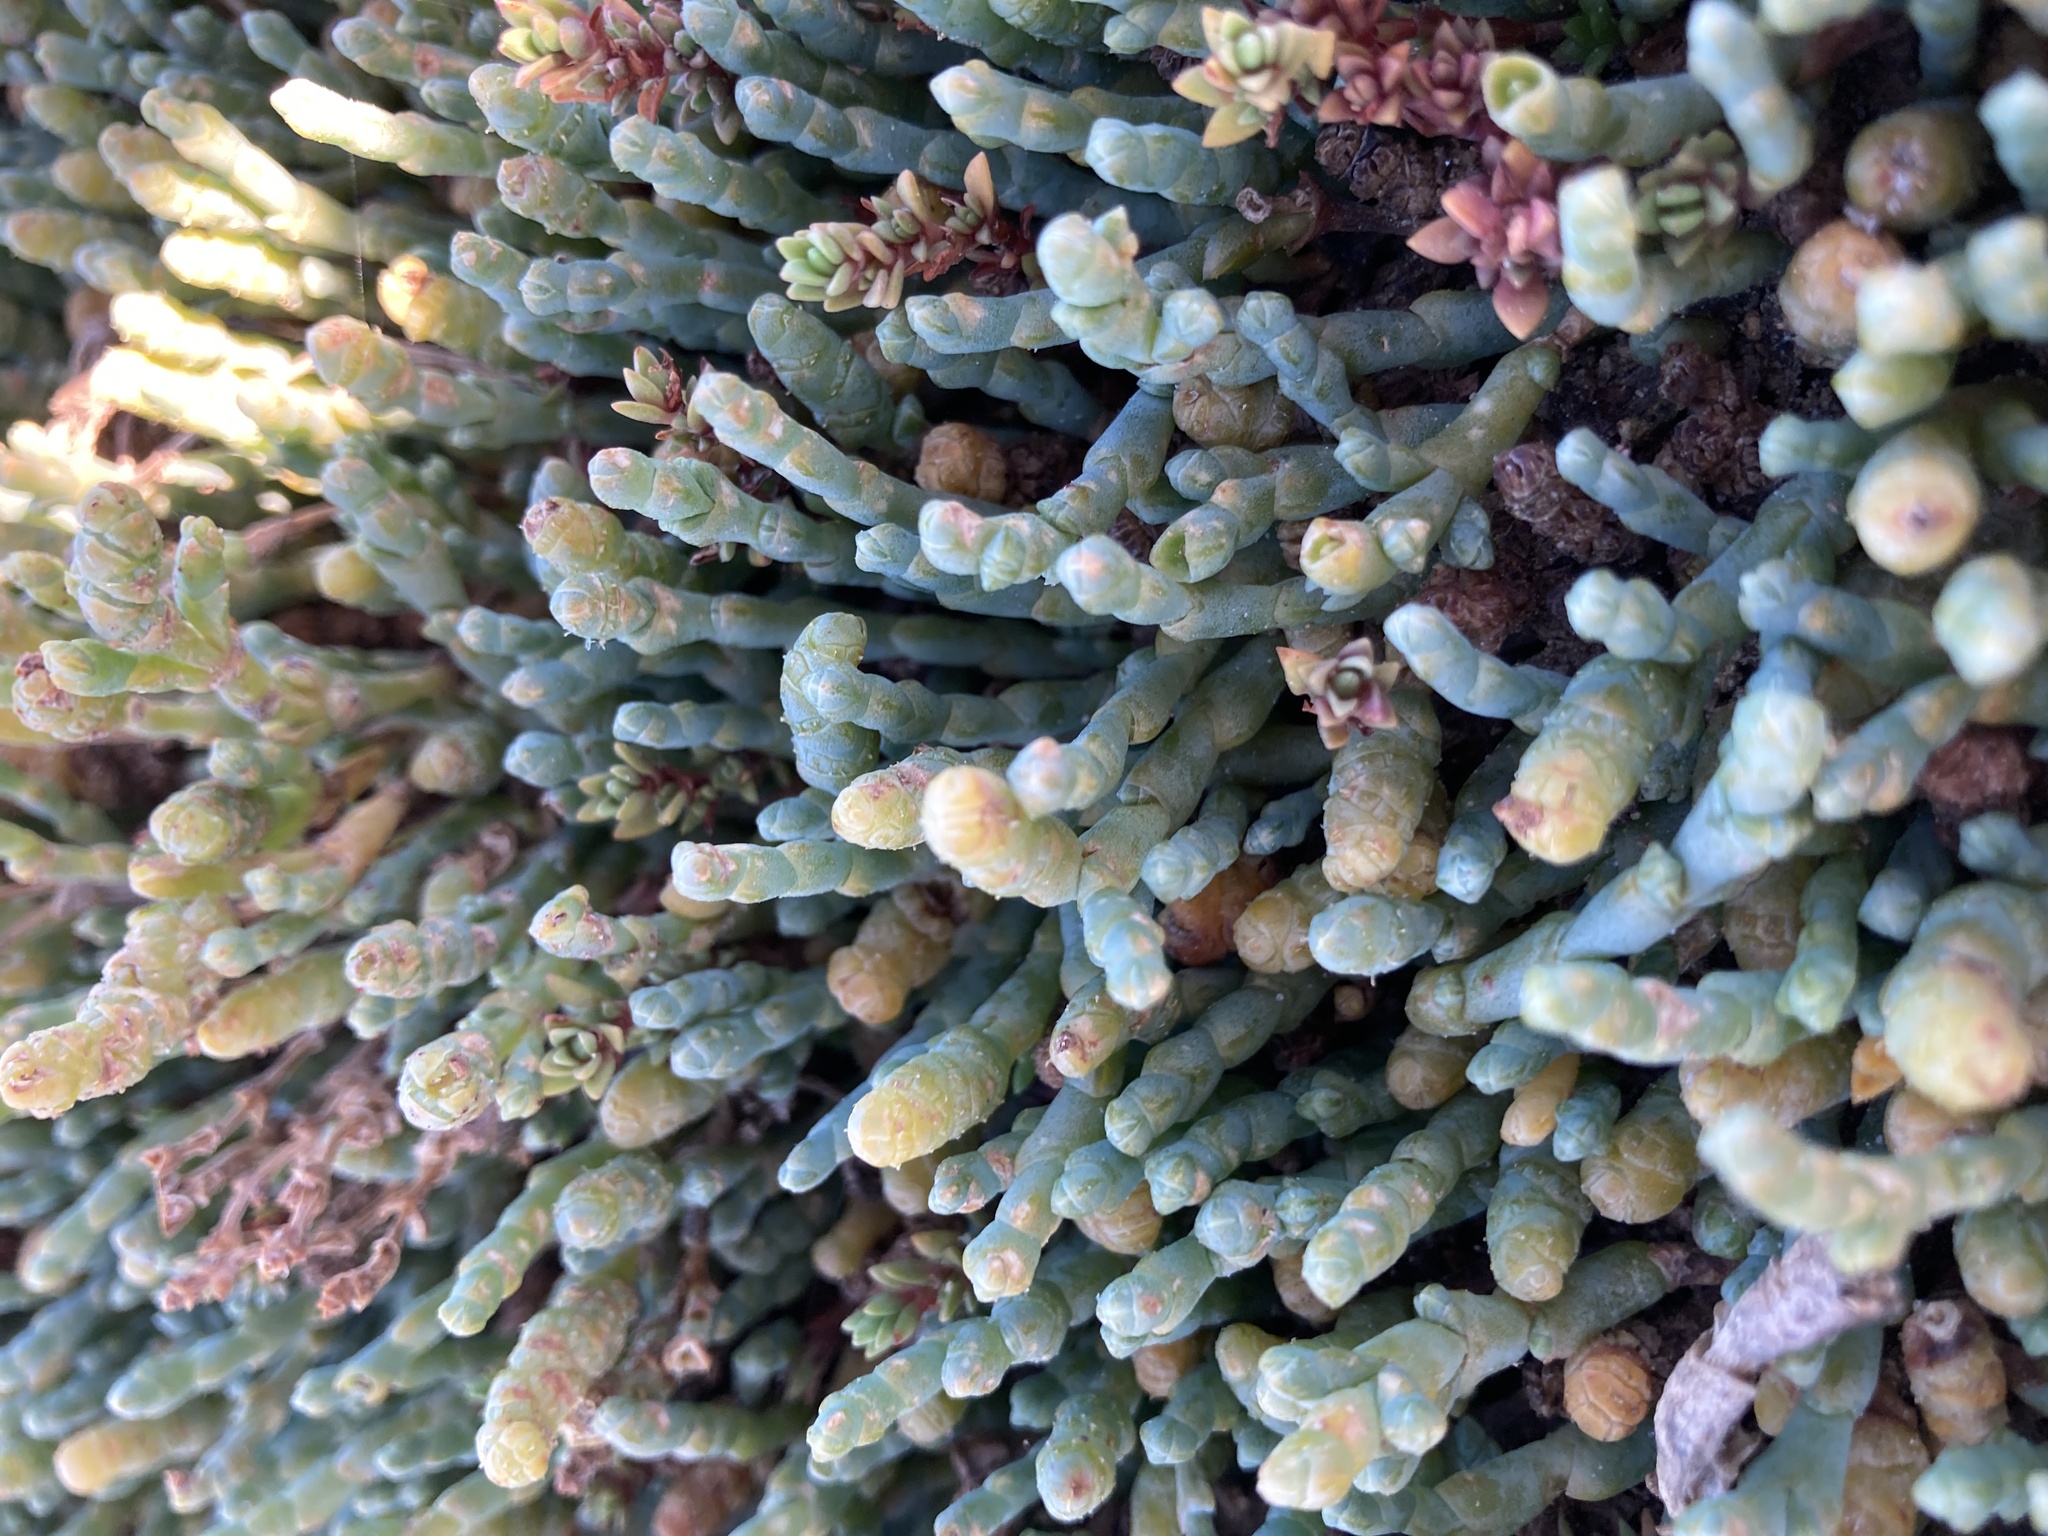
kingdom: Plantae
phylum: Tracheophyta
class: Magnoliopsida
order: Caryophyllales
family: Amaranthaceae
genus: Salicornia
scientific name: Salicornia quinqueflora
